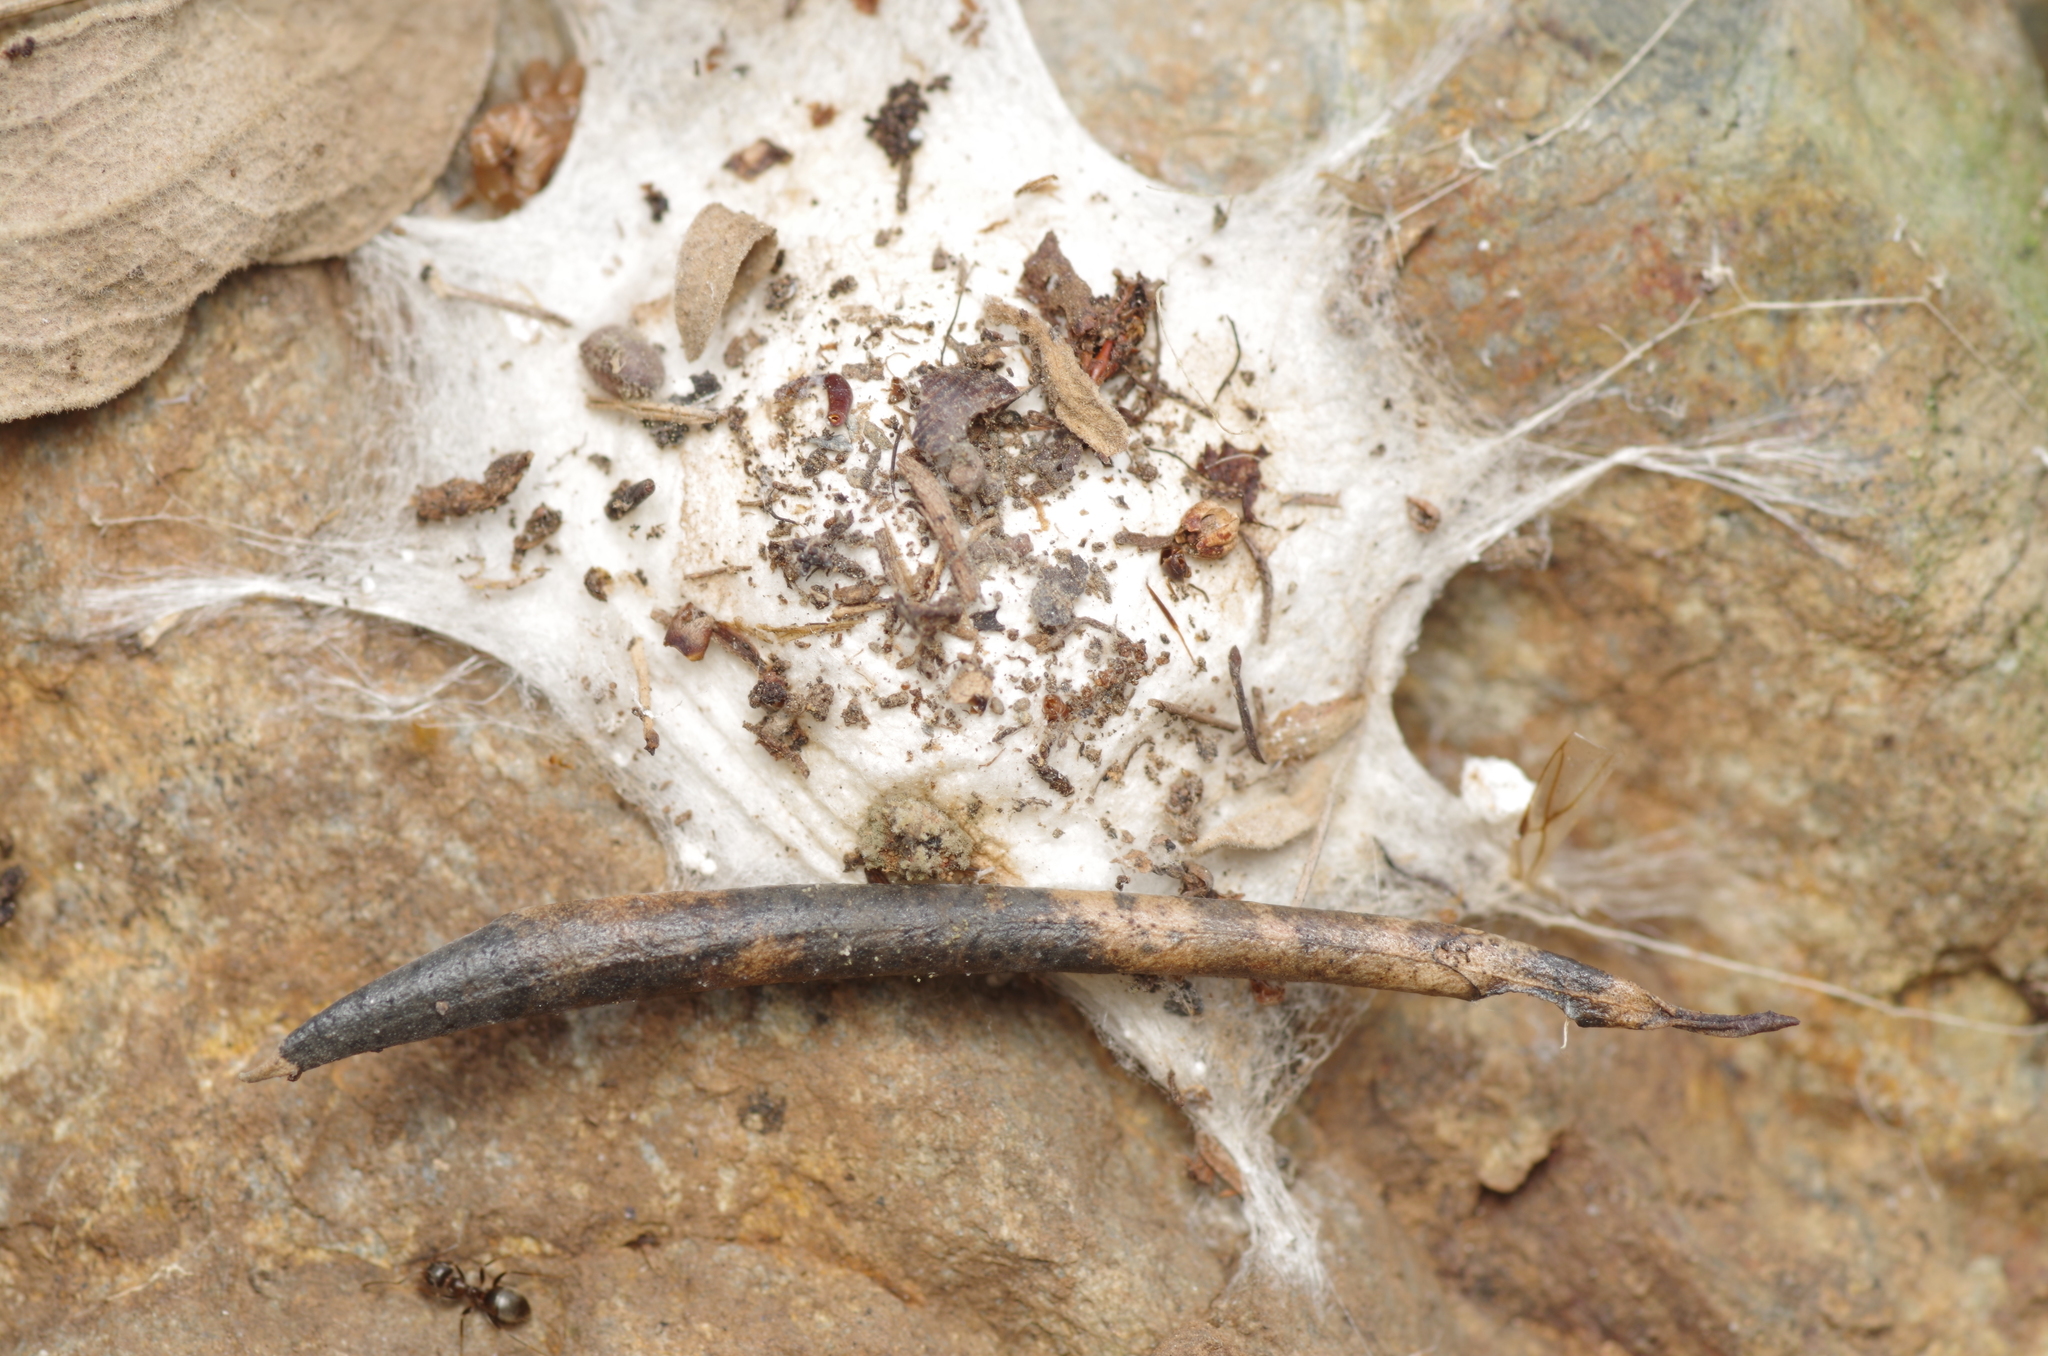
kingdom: Animalia
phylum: Arthropoda
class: Arachnida
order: Araneae
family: Oecobiidae
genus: Uroctea
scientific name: Uroctea durandi
